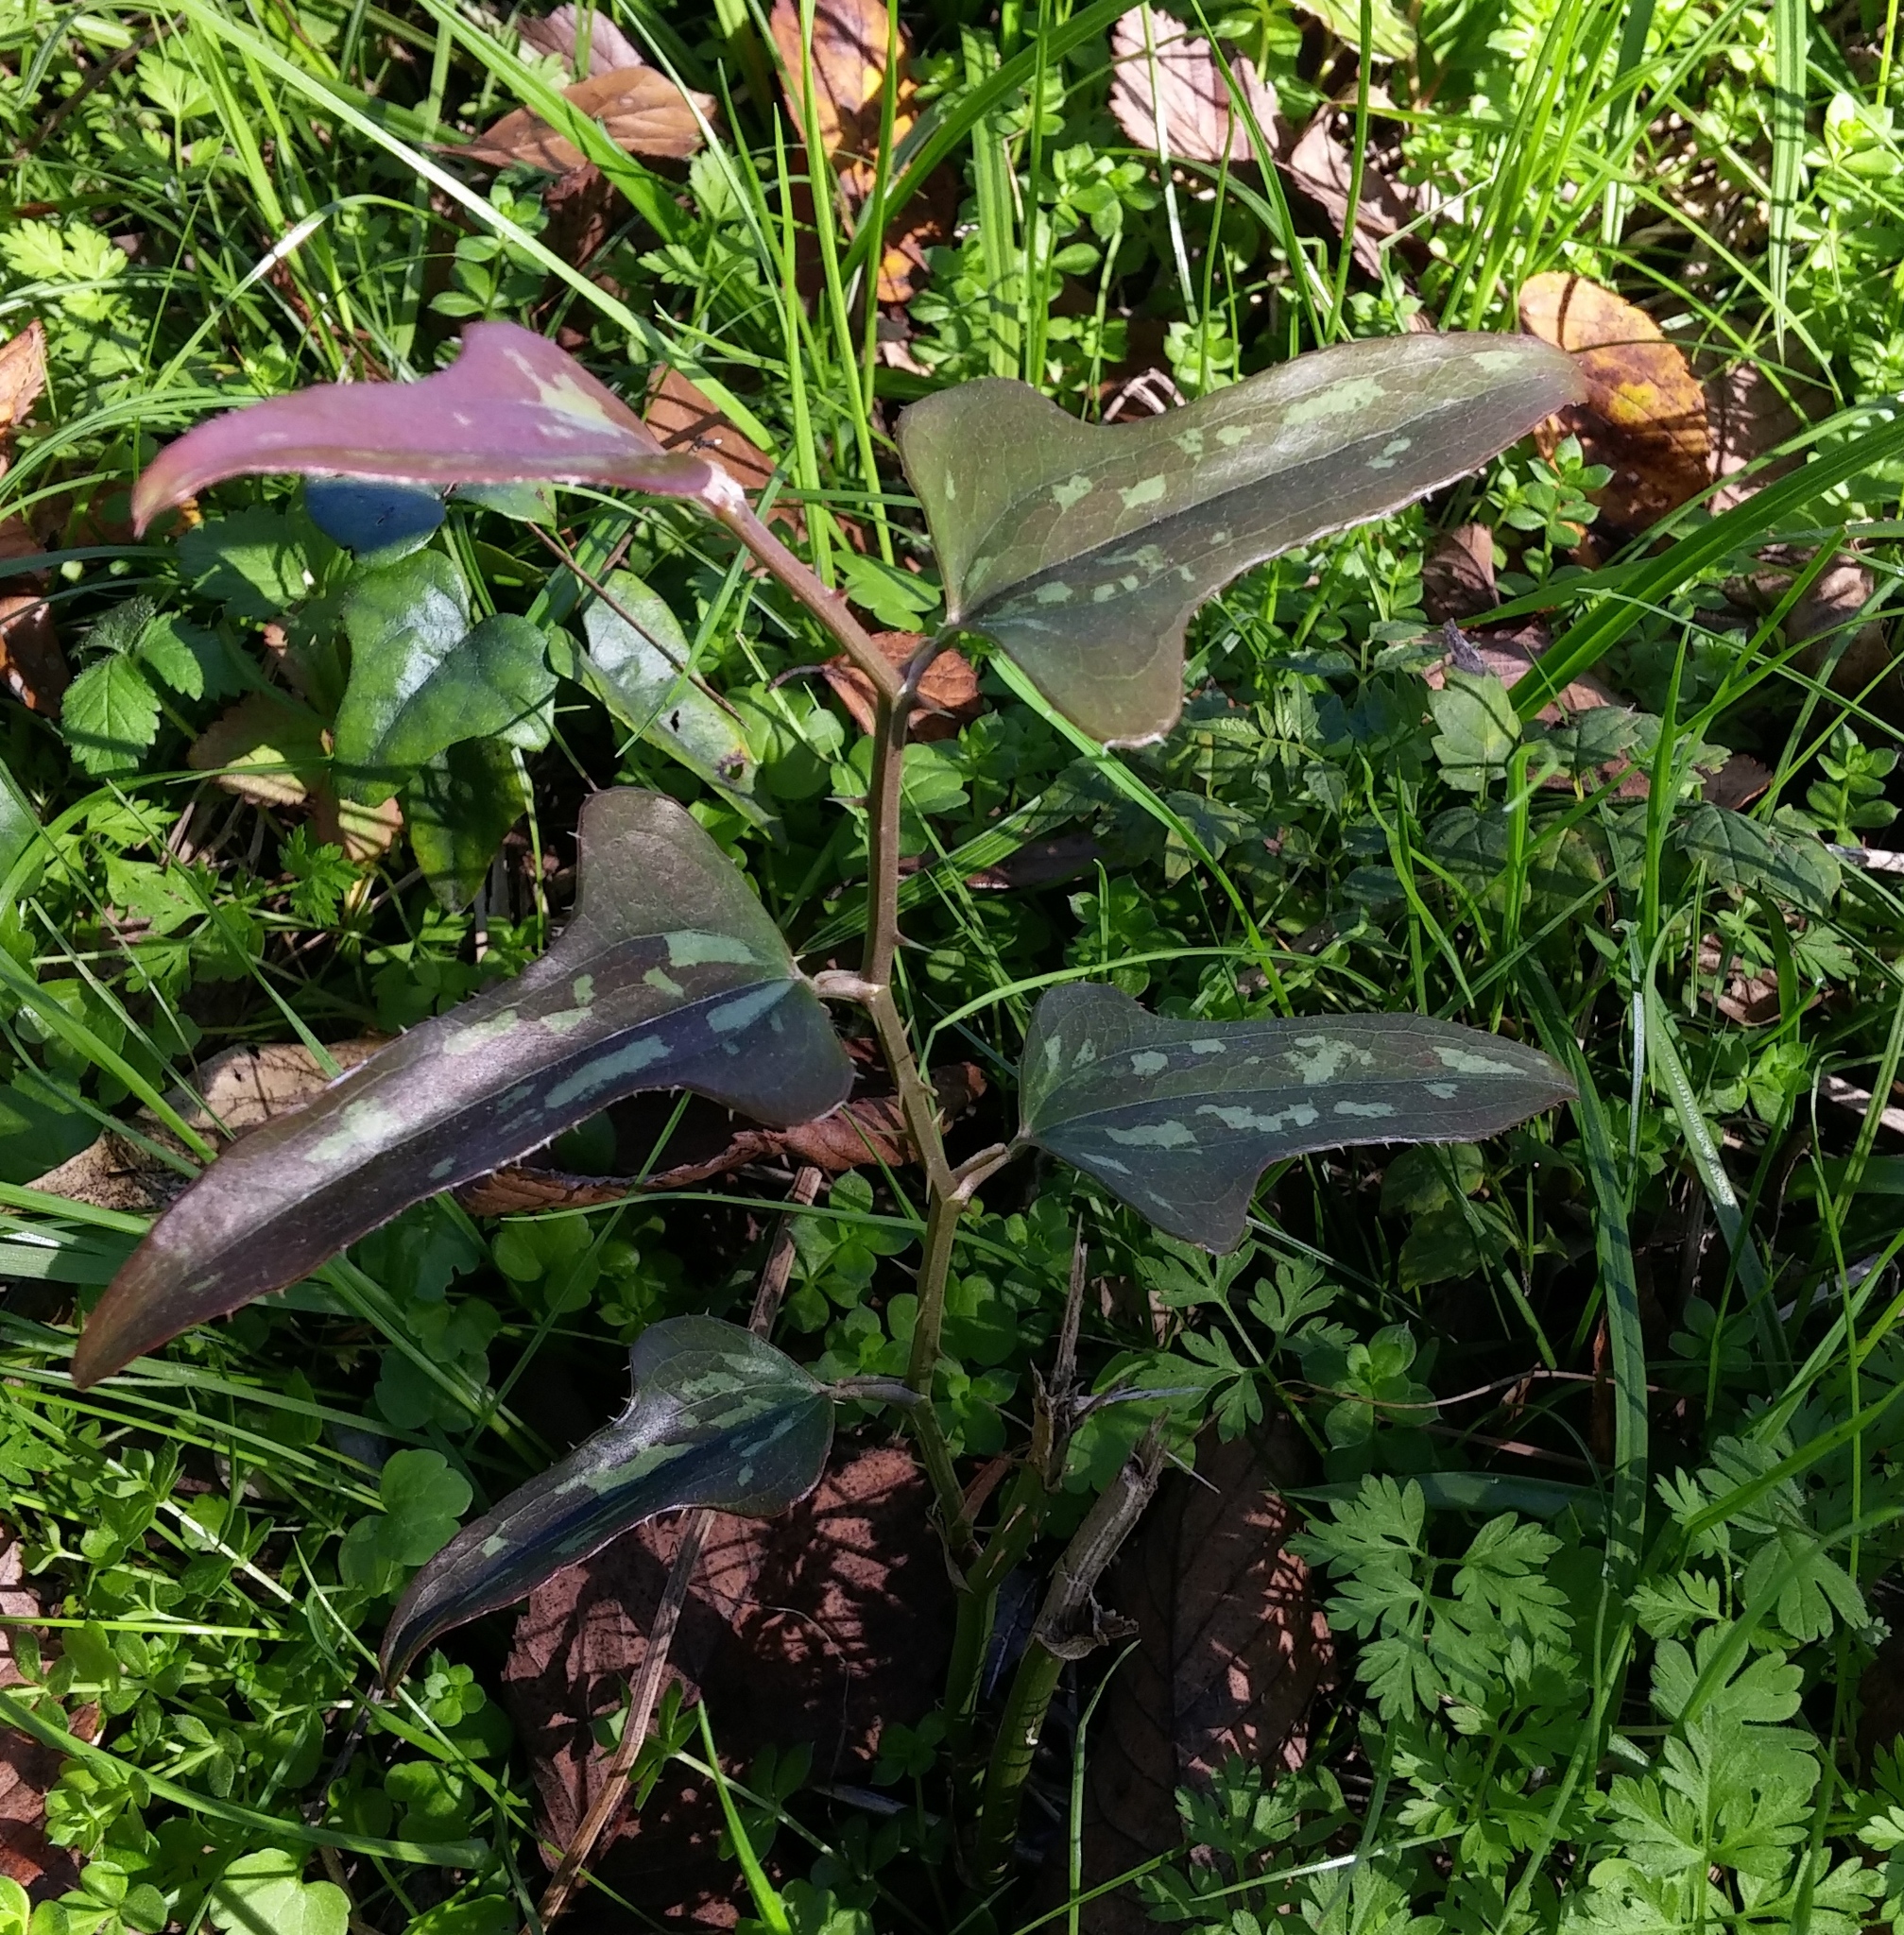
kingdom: Plantae
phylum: Tracheophyta
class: Liliopsida
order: Liliales
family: Smilacaceae
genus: Smilax
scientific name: Smilax bona-nox
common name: Catbrier
